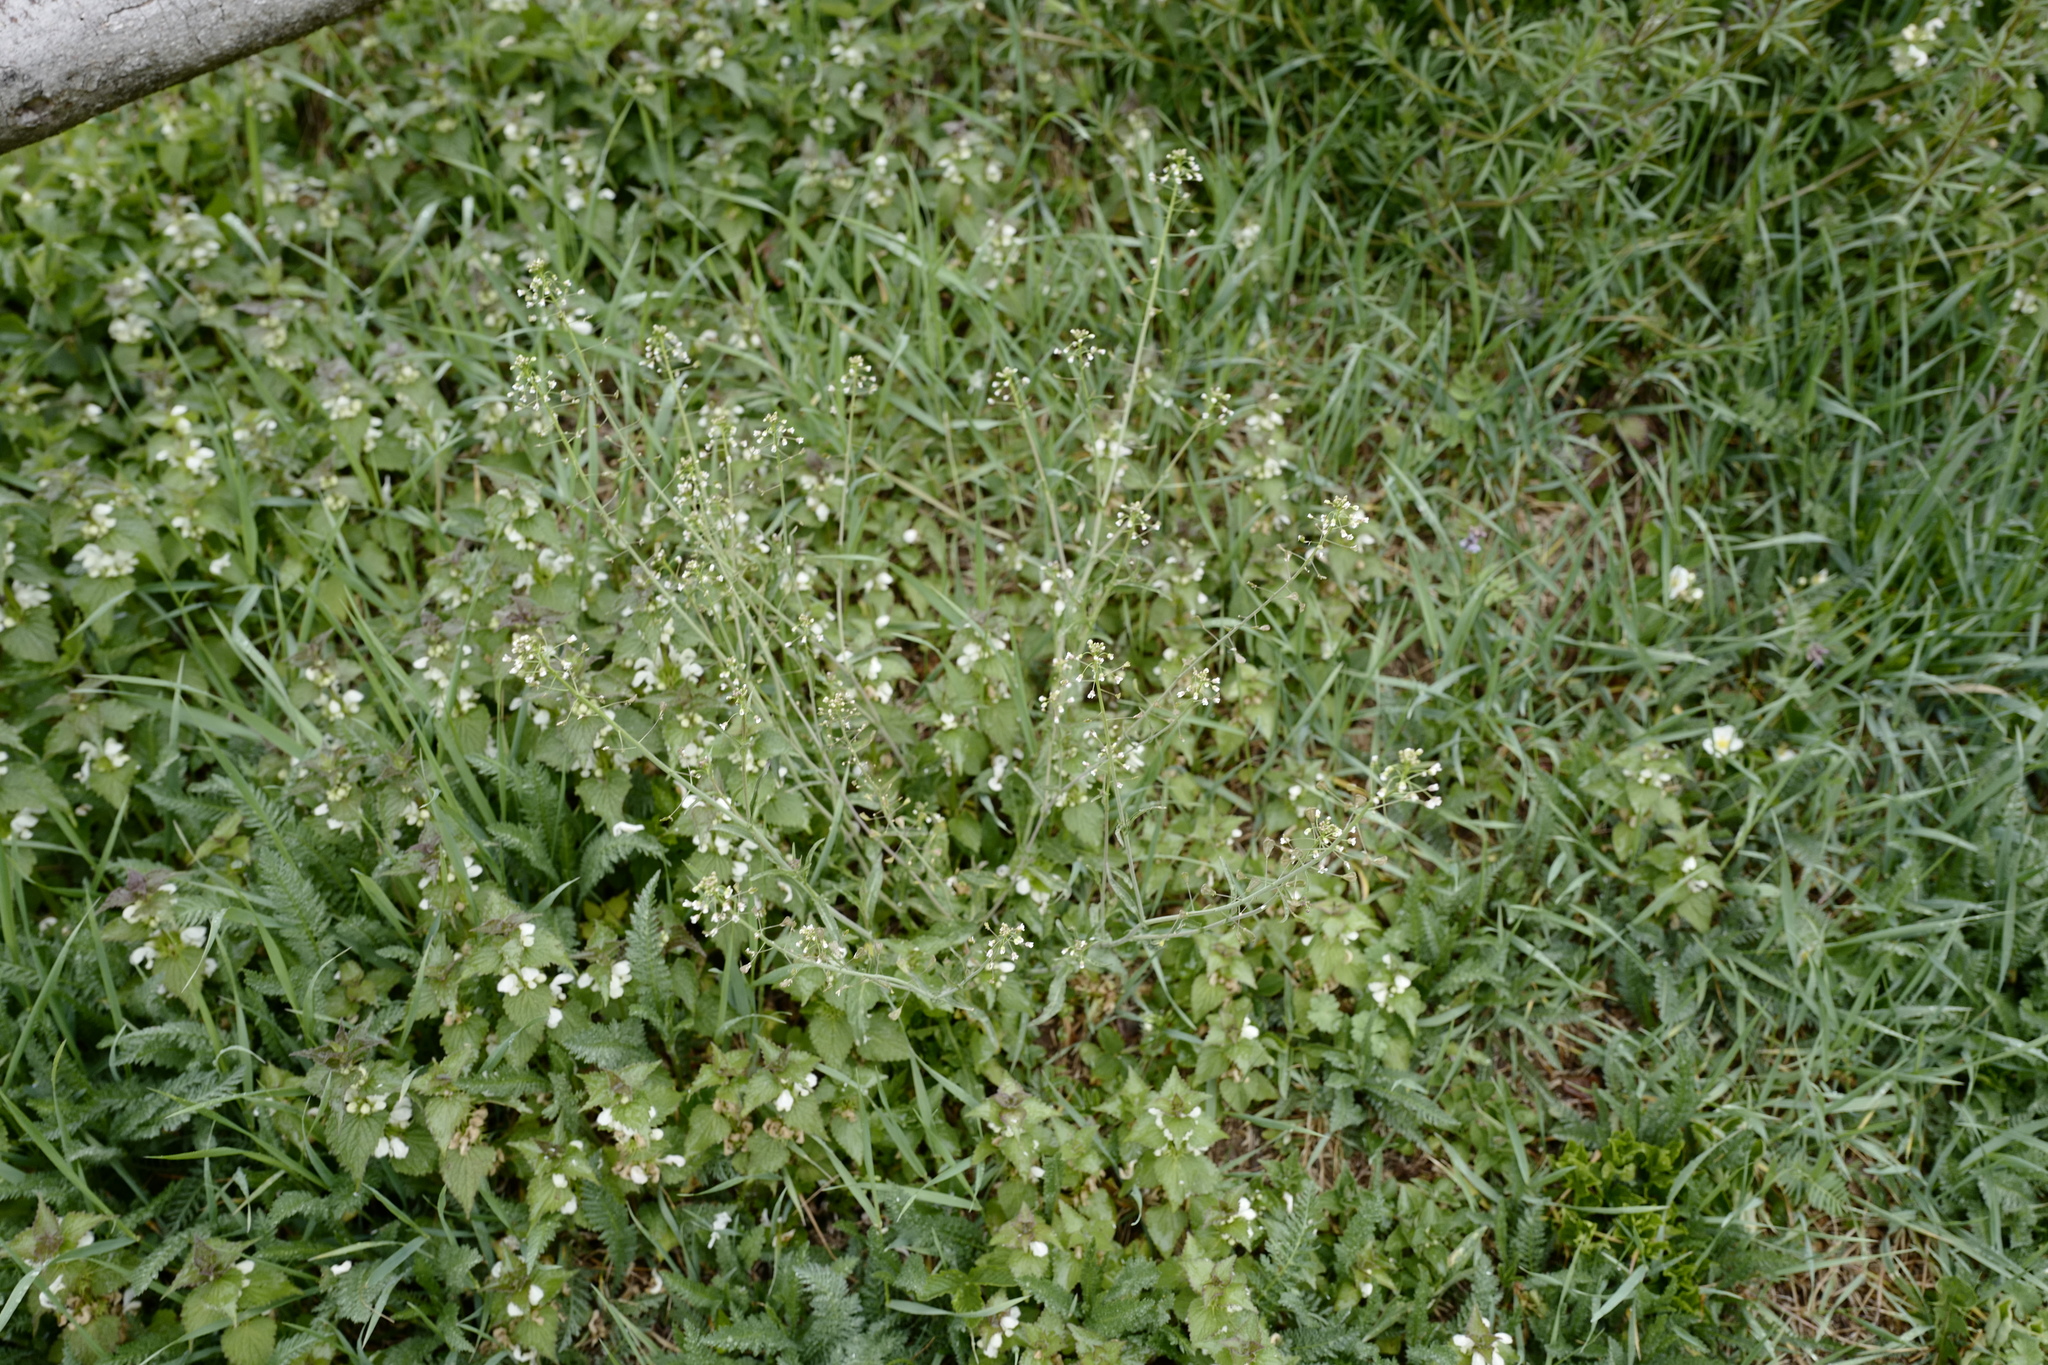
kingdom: Plantae
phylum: Tracheophyta
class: Magnoliopsida
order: Brassicales
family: Brassicaceae
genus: Capsella
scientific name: Capsella bursa-pastoris
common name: Shepherd's purse
